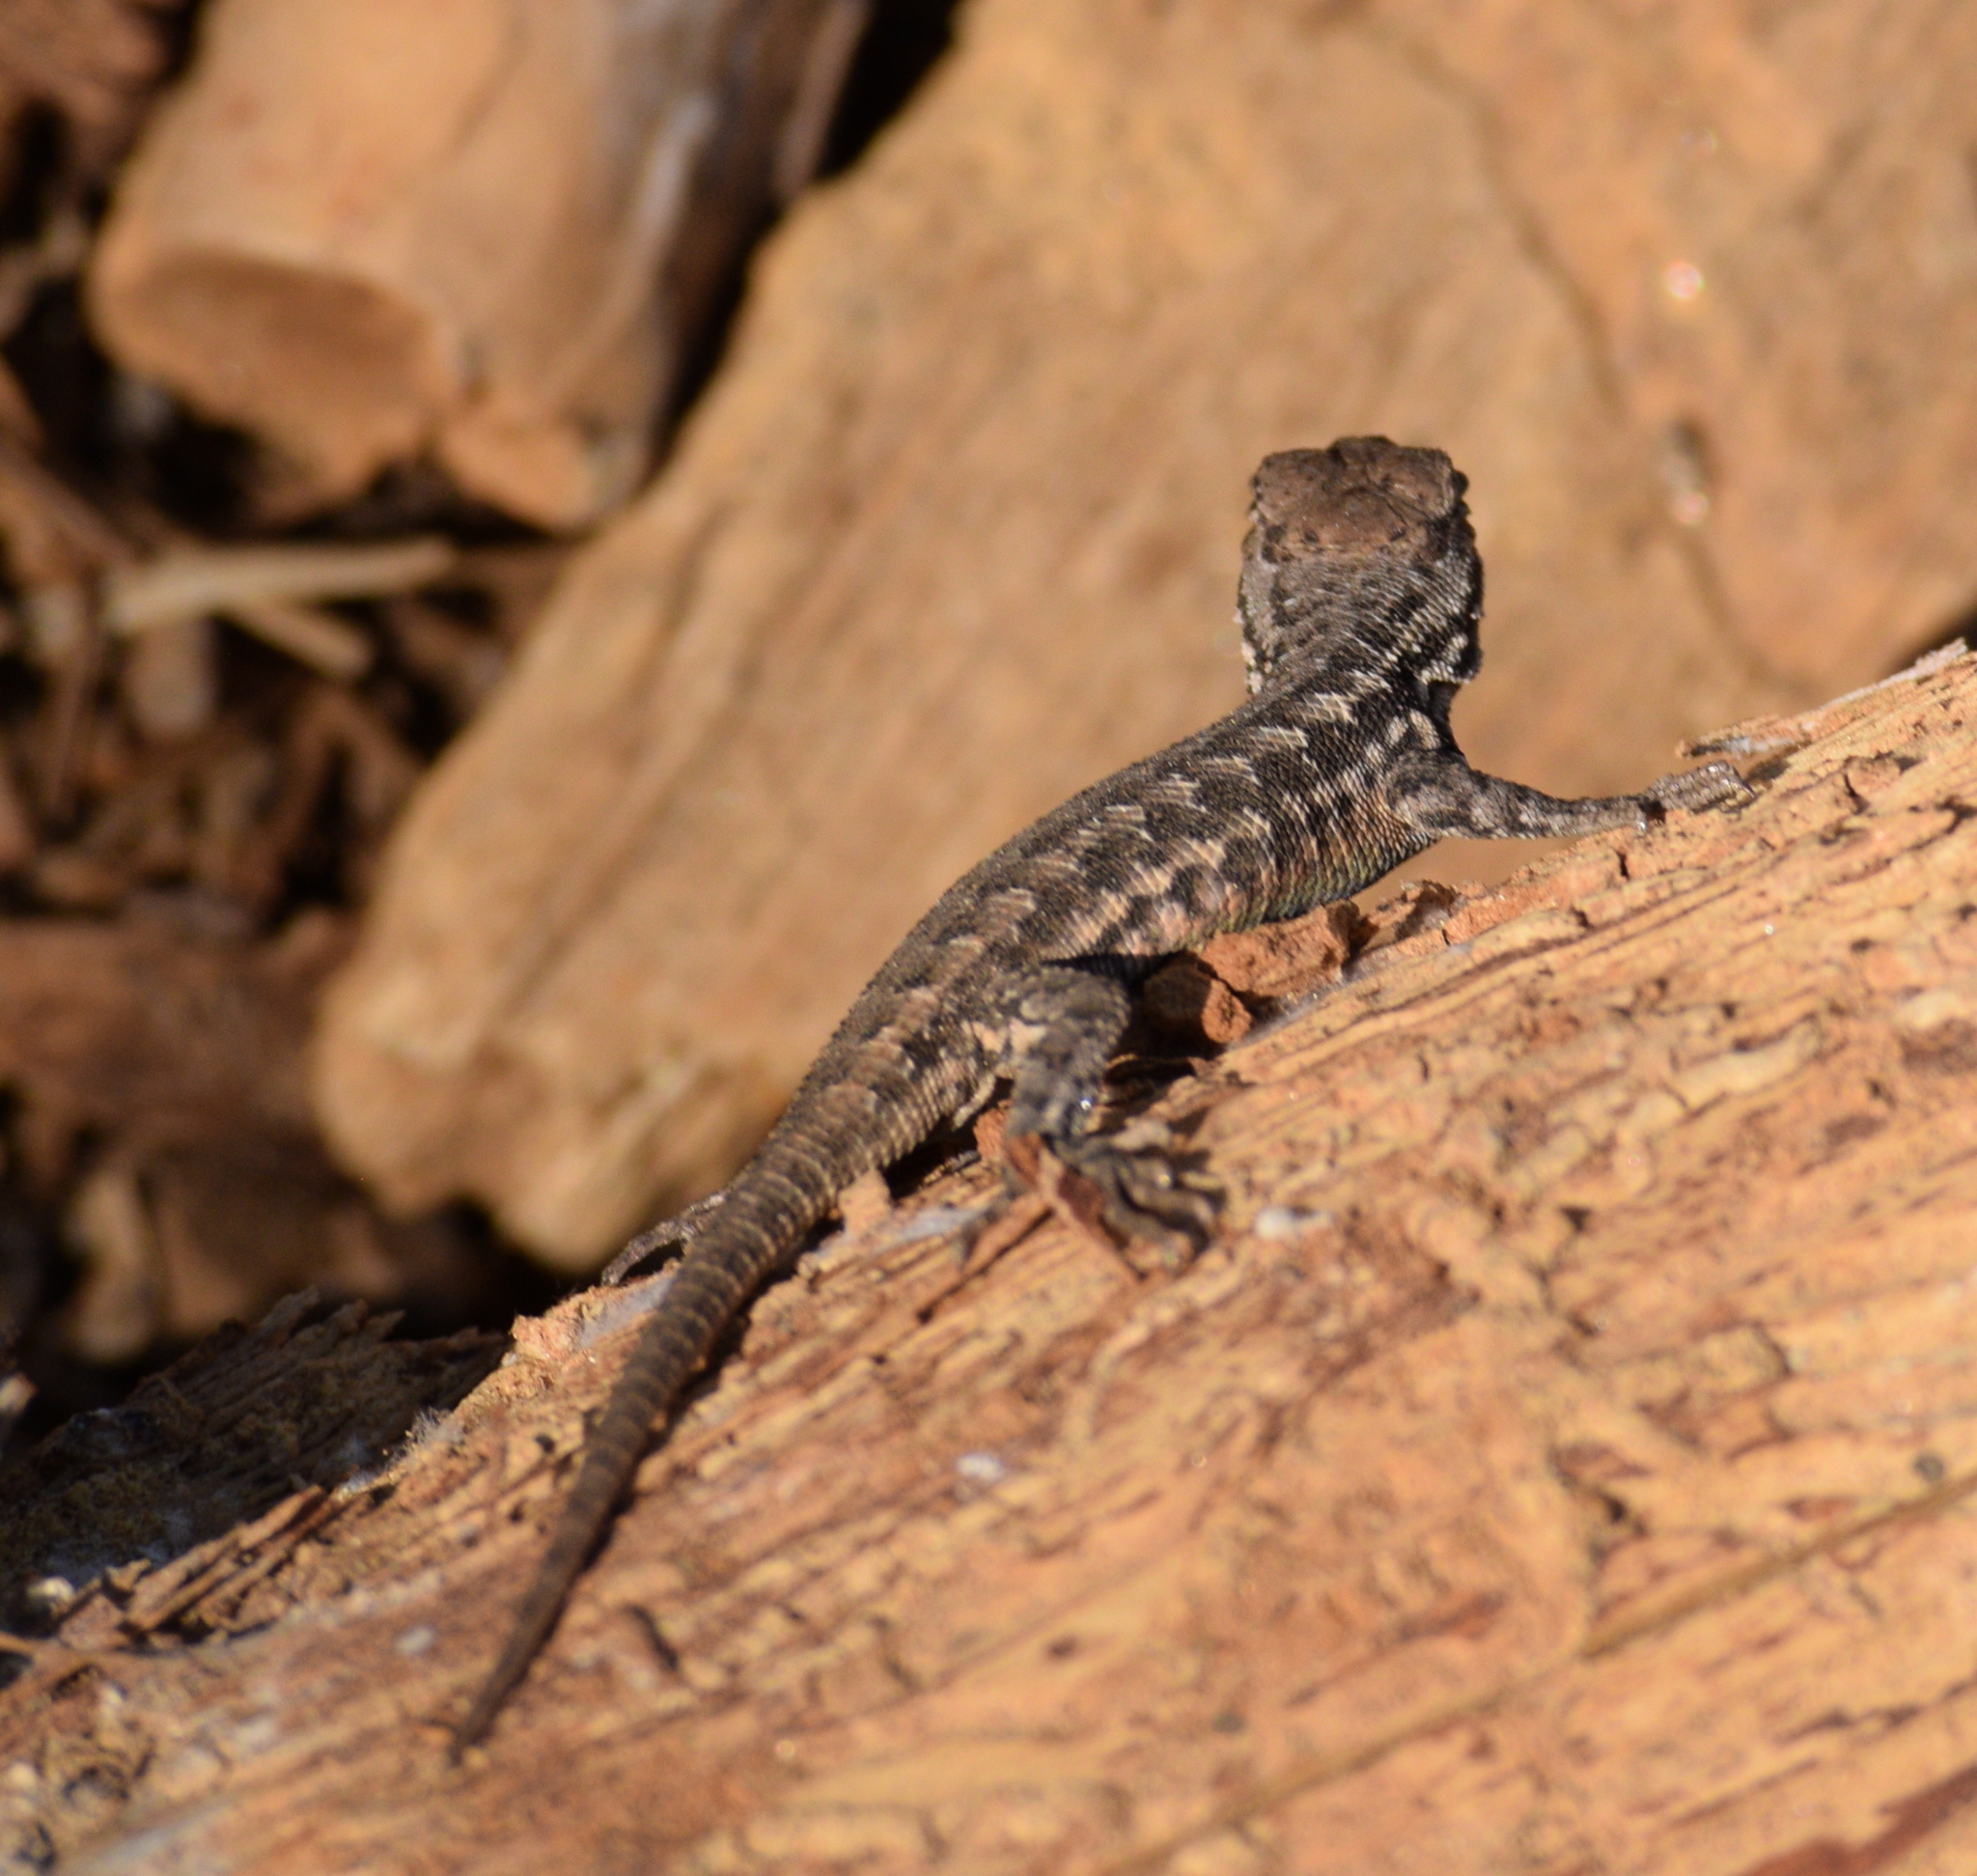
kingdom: Animalia
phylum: Chordata
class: Squamata
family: Phrynosomatidae
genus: Sceloporus
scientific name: Sceloporus graciosus
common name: Sagebrush lizard
